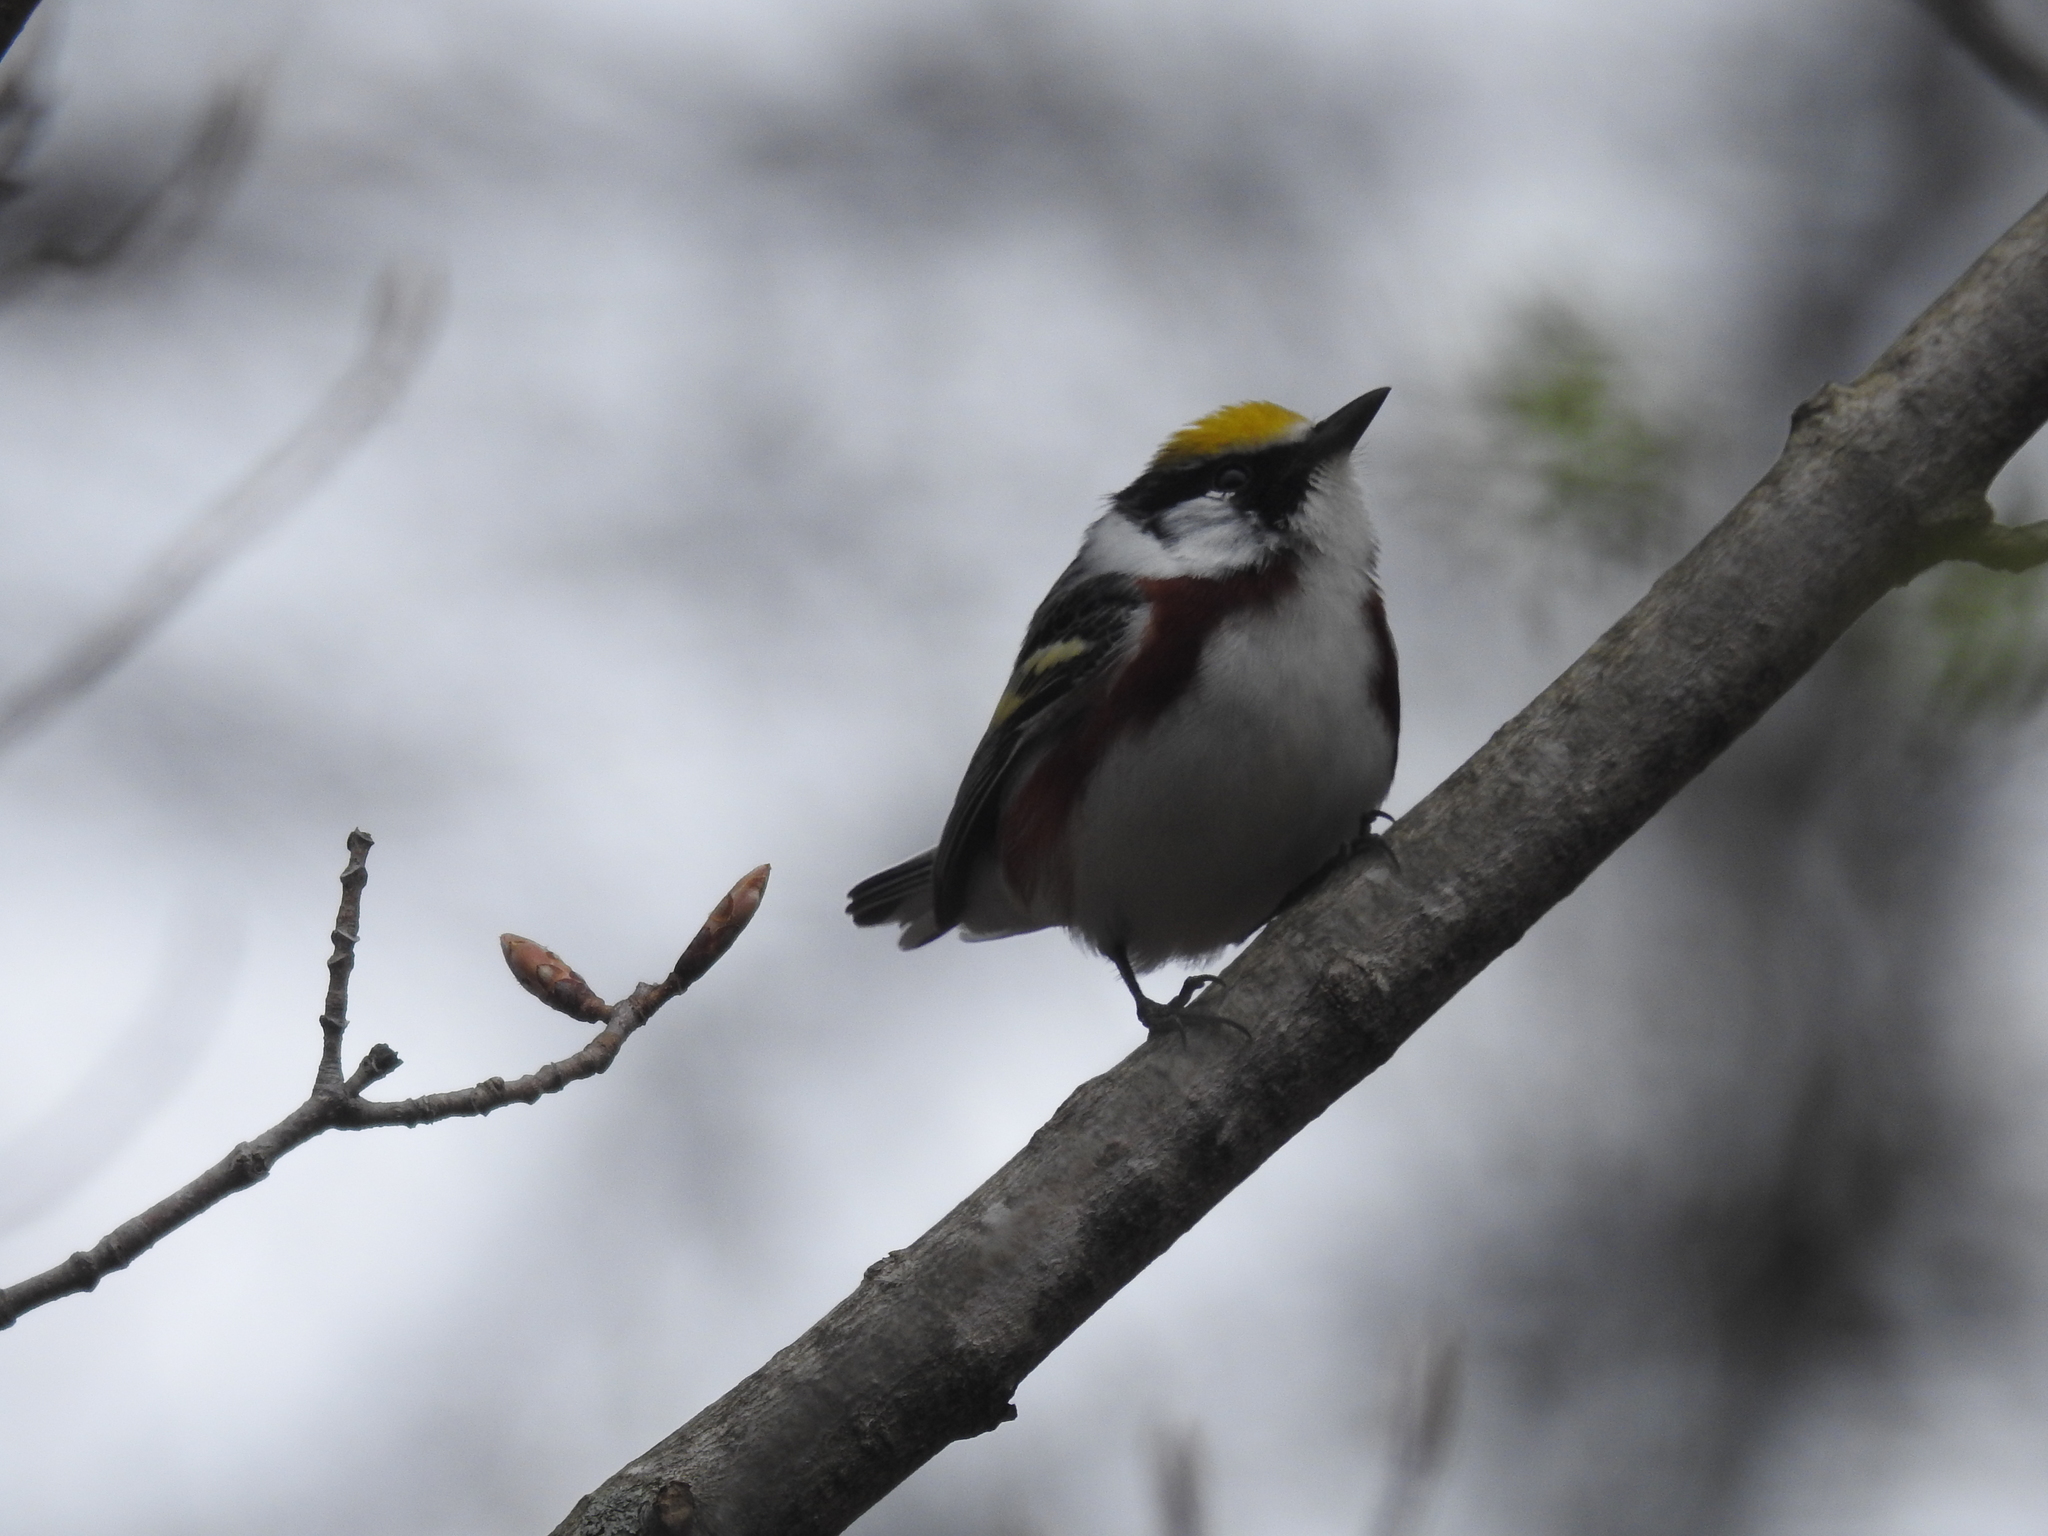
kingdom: Animalia
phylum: Chordata
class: Aves
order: Passeriformes
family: Parulidae
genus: Setophaga
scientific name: Setophaga pensylvanica
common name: Chestnut-sided warbler
